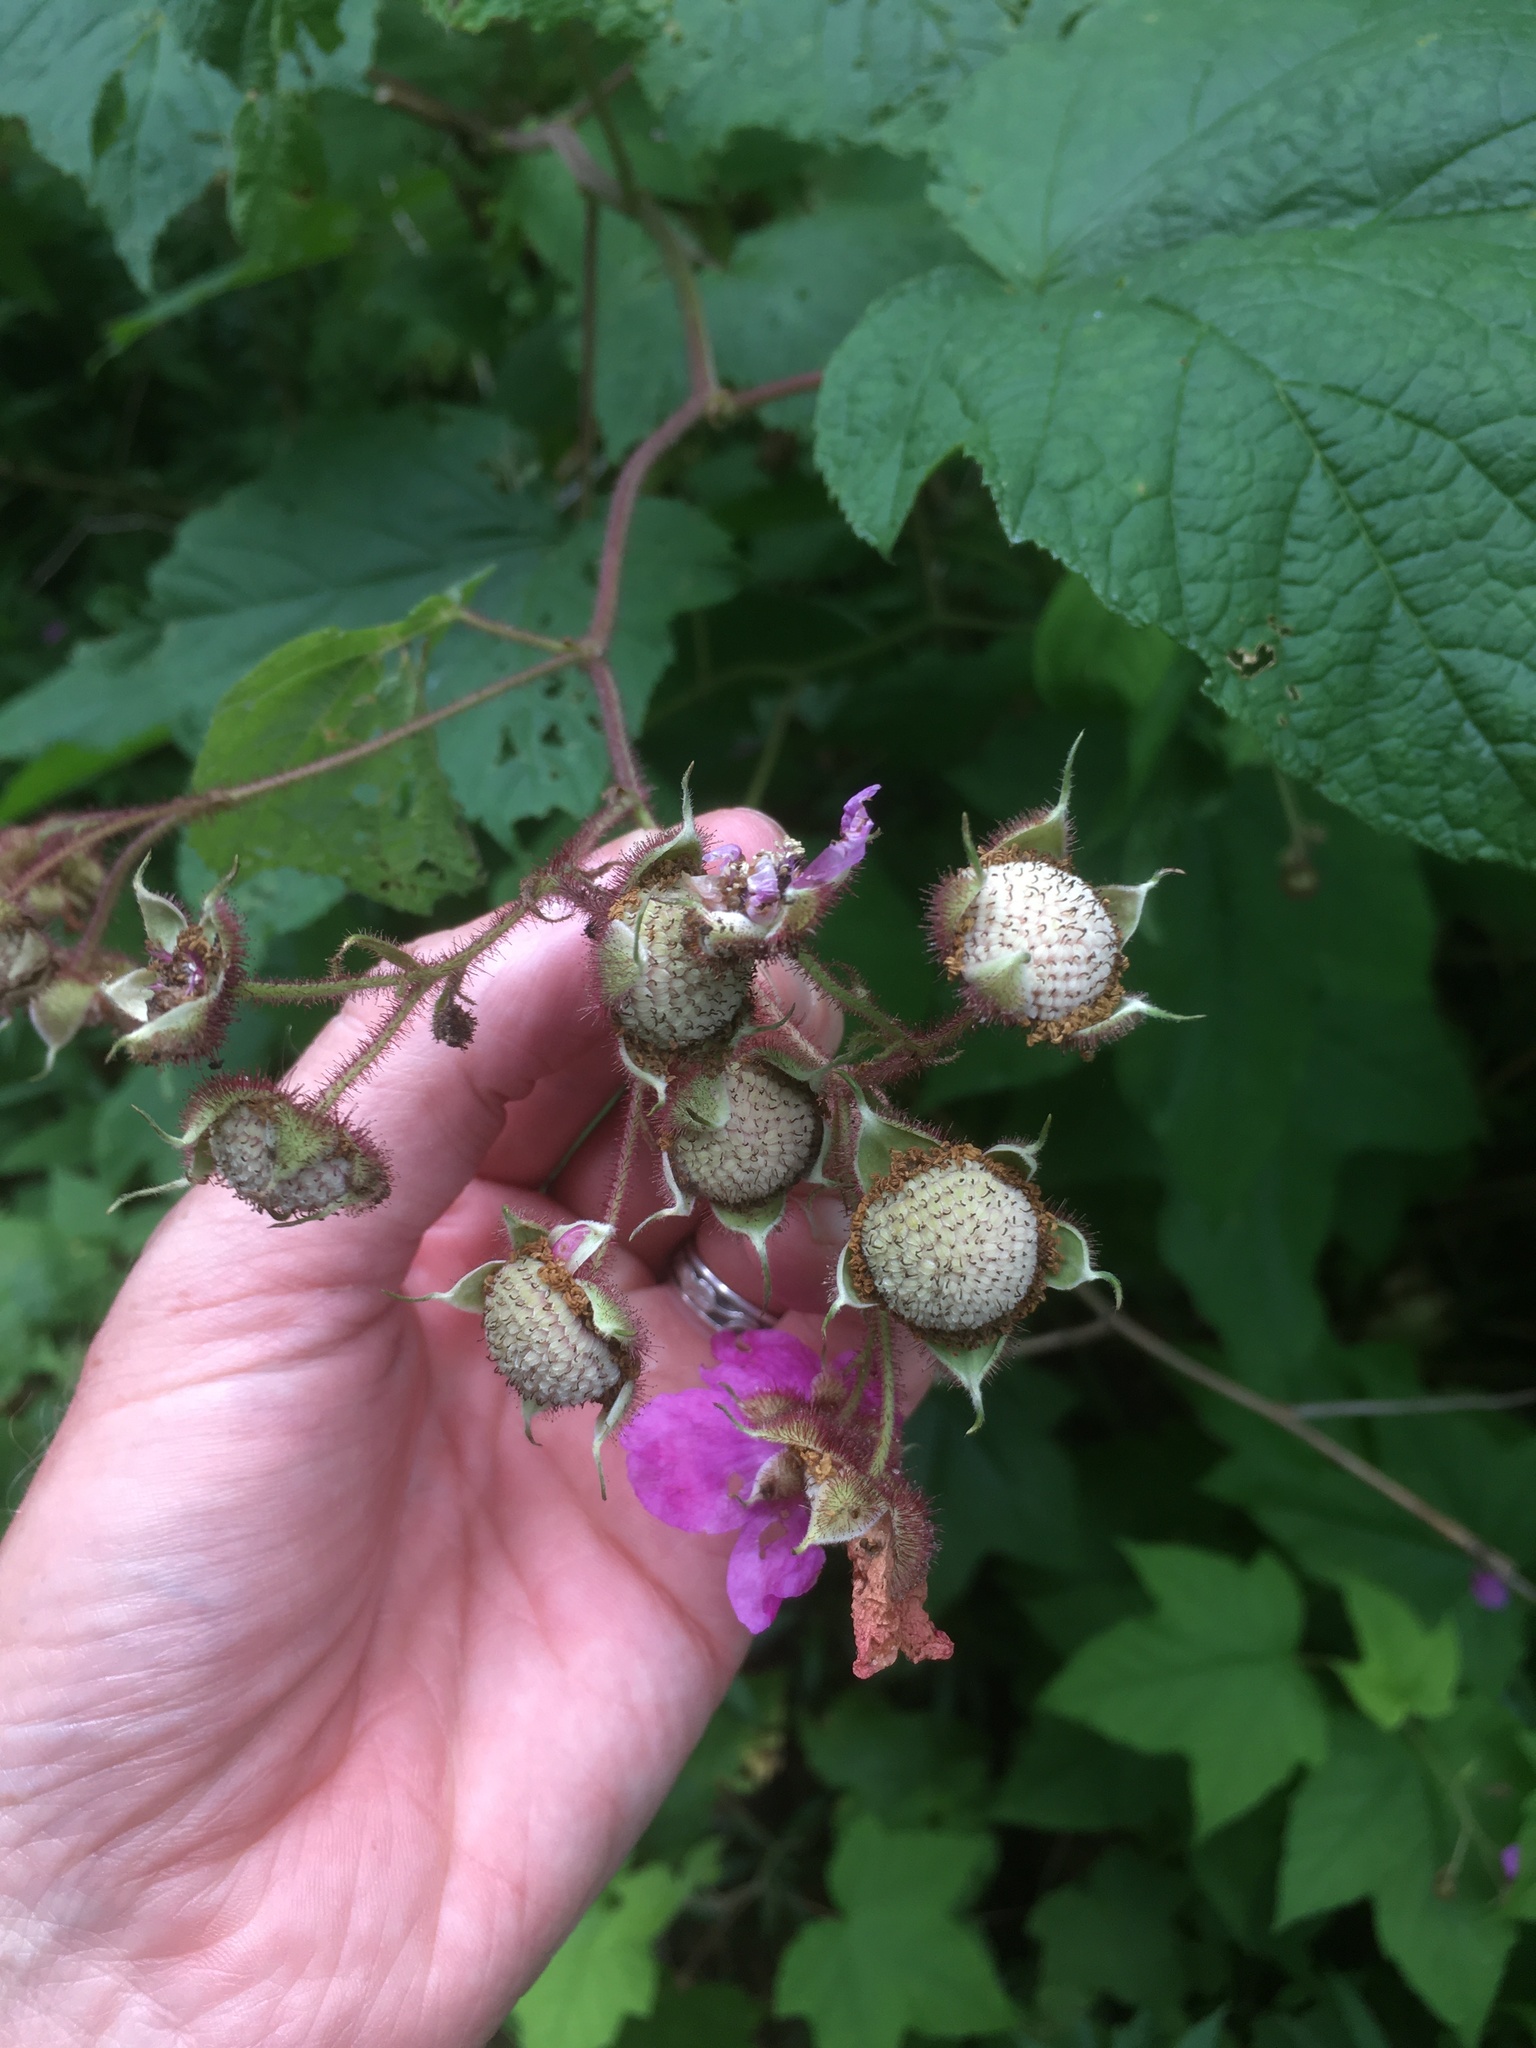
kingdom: Plantae
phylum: Tracheophyta
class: Magnoliopsida
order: Rosales
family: Rosaceae
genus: Rubus
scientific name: Rubus odoratus
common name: Purple-flowered raspberry
